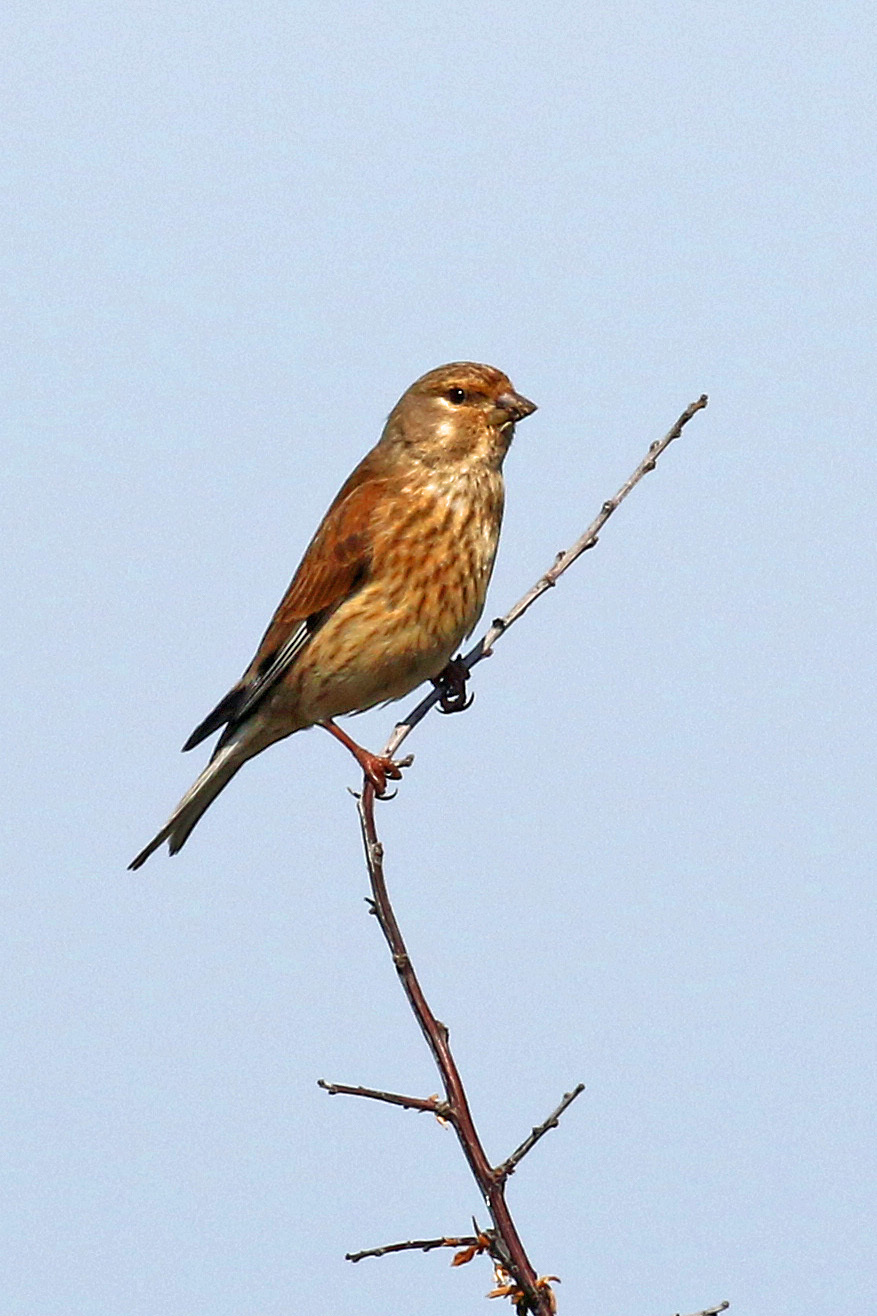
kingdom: Animalia
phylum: Chordata
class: Aves
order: Passeriformes
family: Fringillidae
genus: Linaria
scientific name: Linaria cannabina
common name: Common linnet
